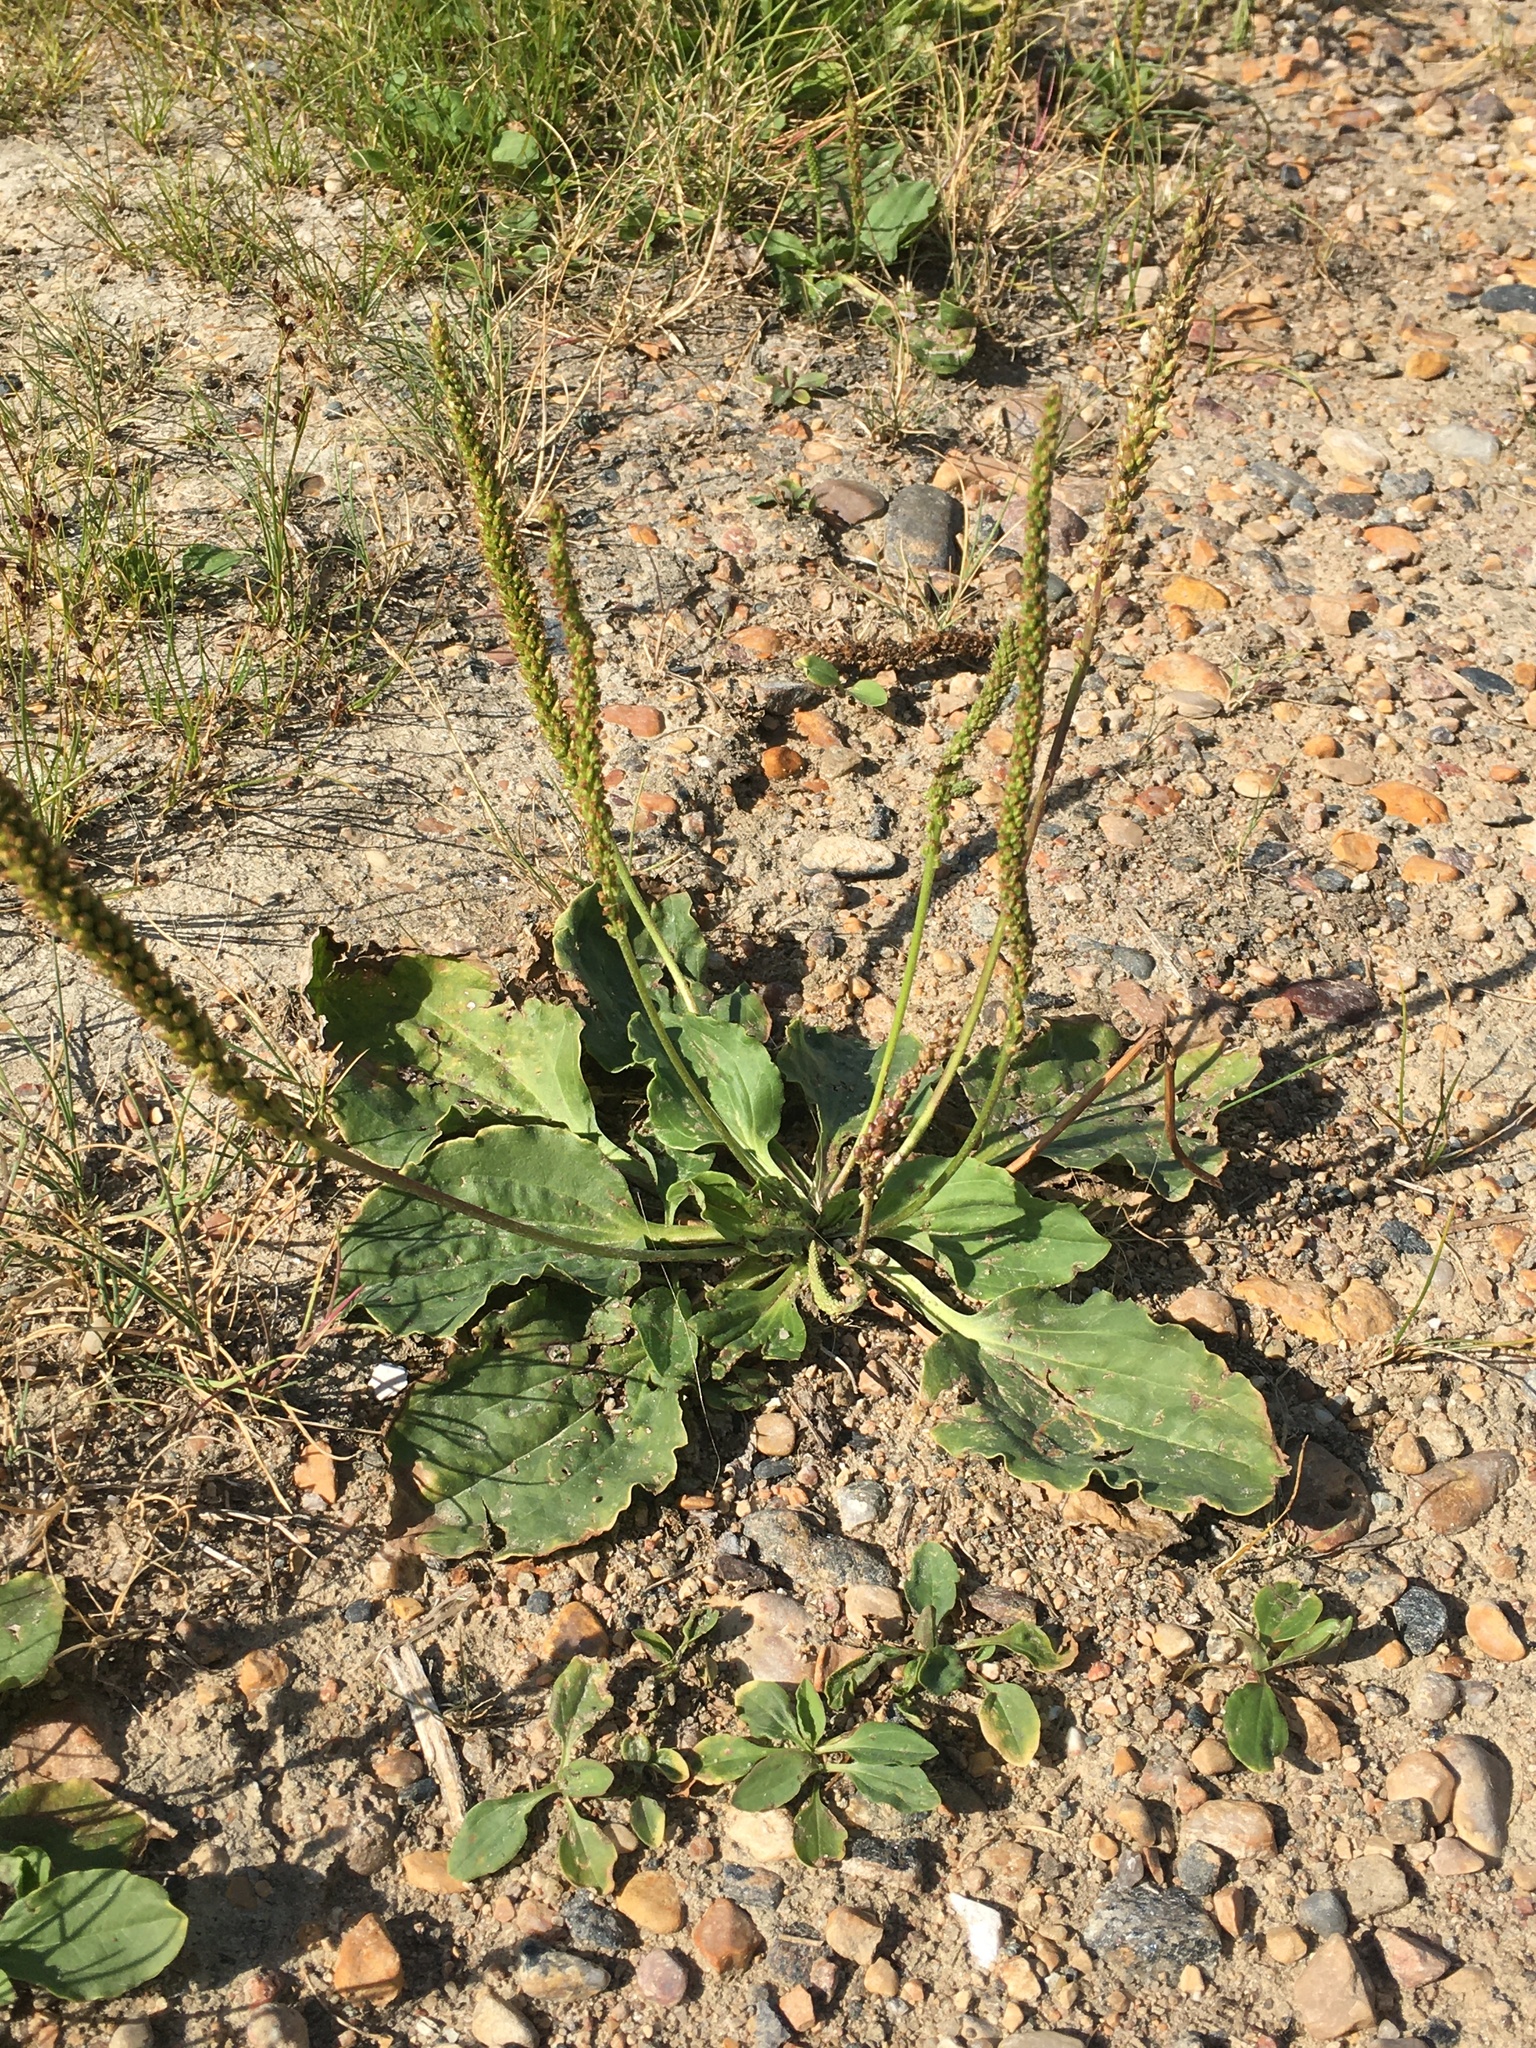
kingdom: Plantae
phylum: Tracheophyta
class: Magnoliopsida
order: Lamiales
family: Plantaginaceae
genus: Plantago
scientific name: Plantago major
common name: Common plantain
